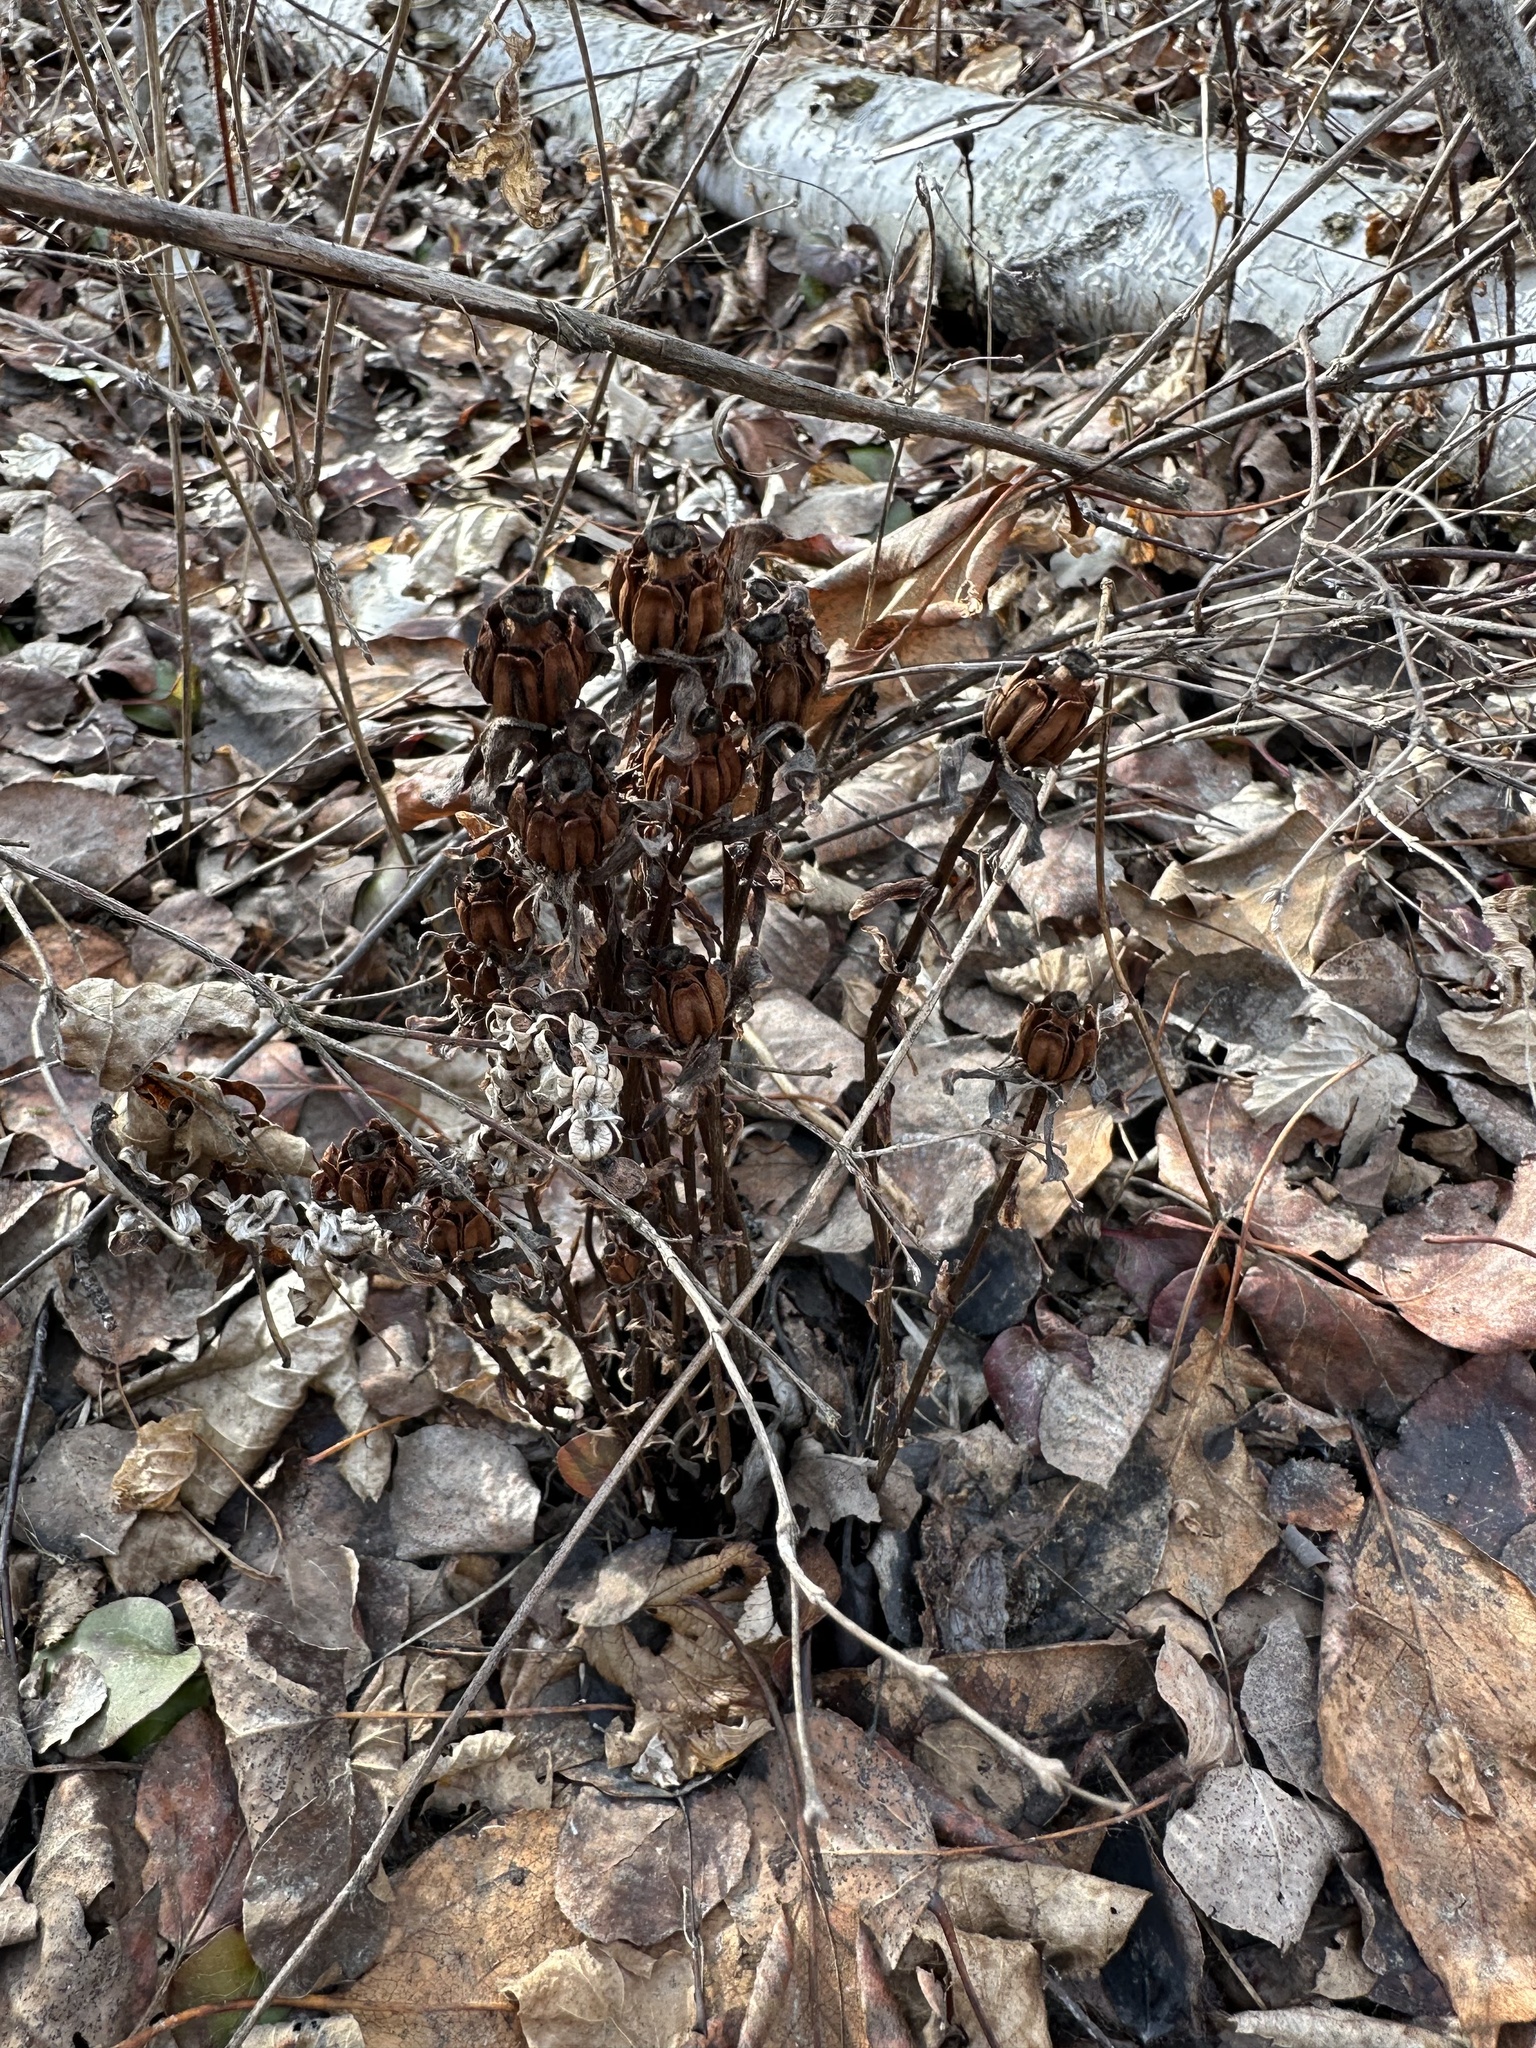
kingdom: Plantae
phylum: Tracheophyta
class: Magnoliopsida
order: Ericales
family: Ericaceae
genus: Monotropa
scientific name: Monotropa uniflora
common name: Convulsion root
